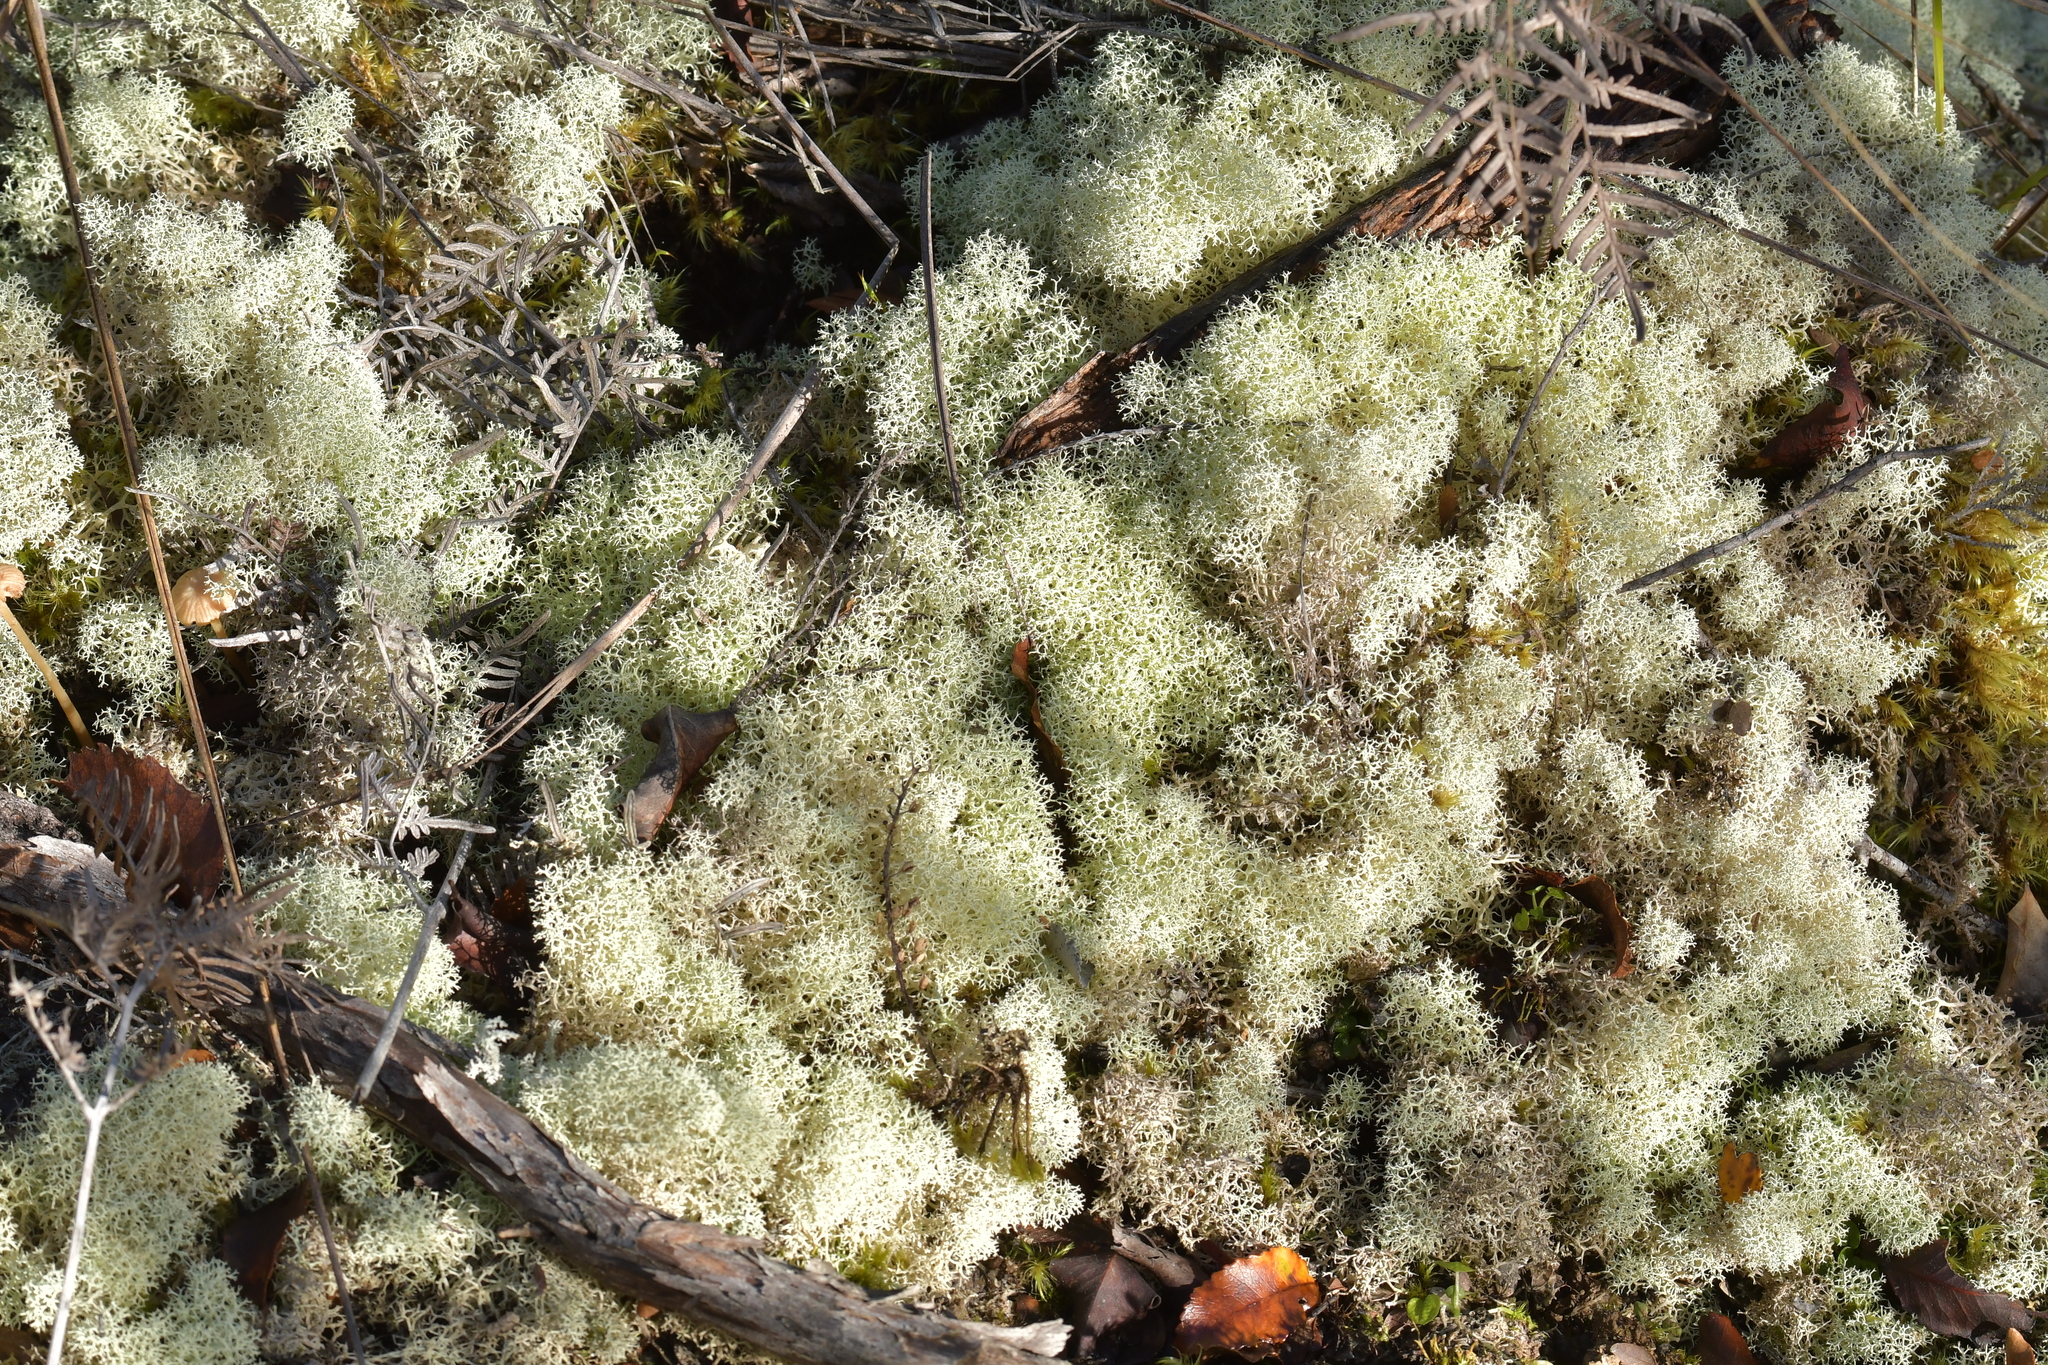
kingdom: Fungi
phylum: Ascomycota
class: Lecanoromycetes
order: Lecanorales
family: Cladoniaceae
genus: Cladonia
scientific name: Cladonia confusa
